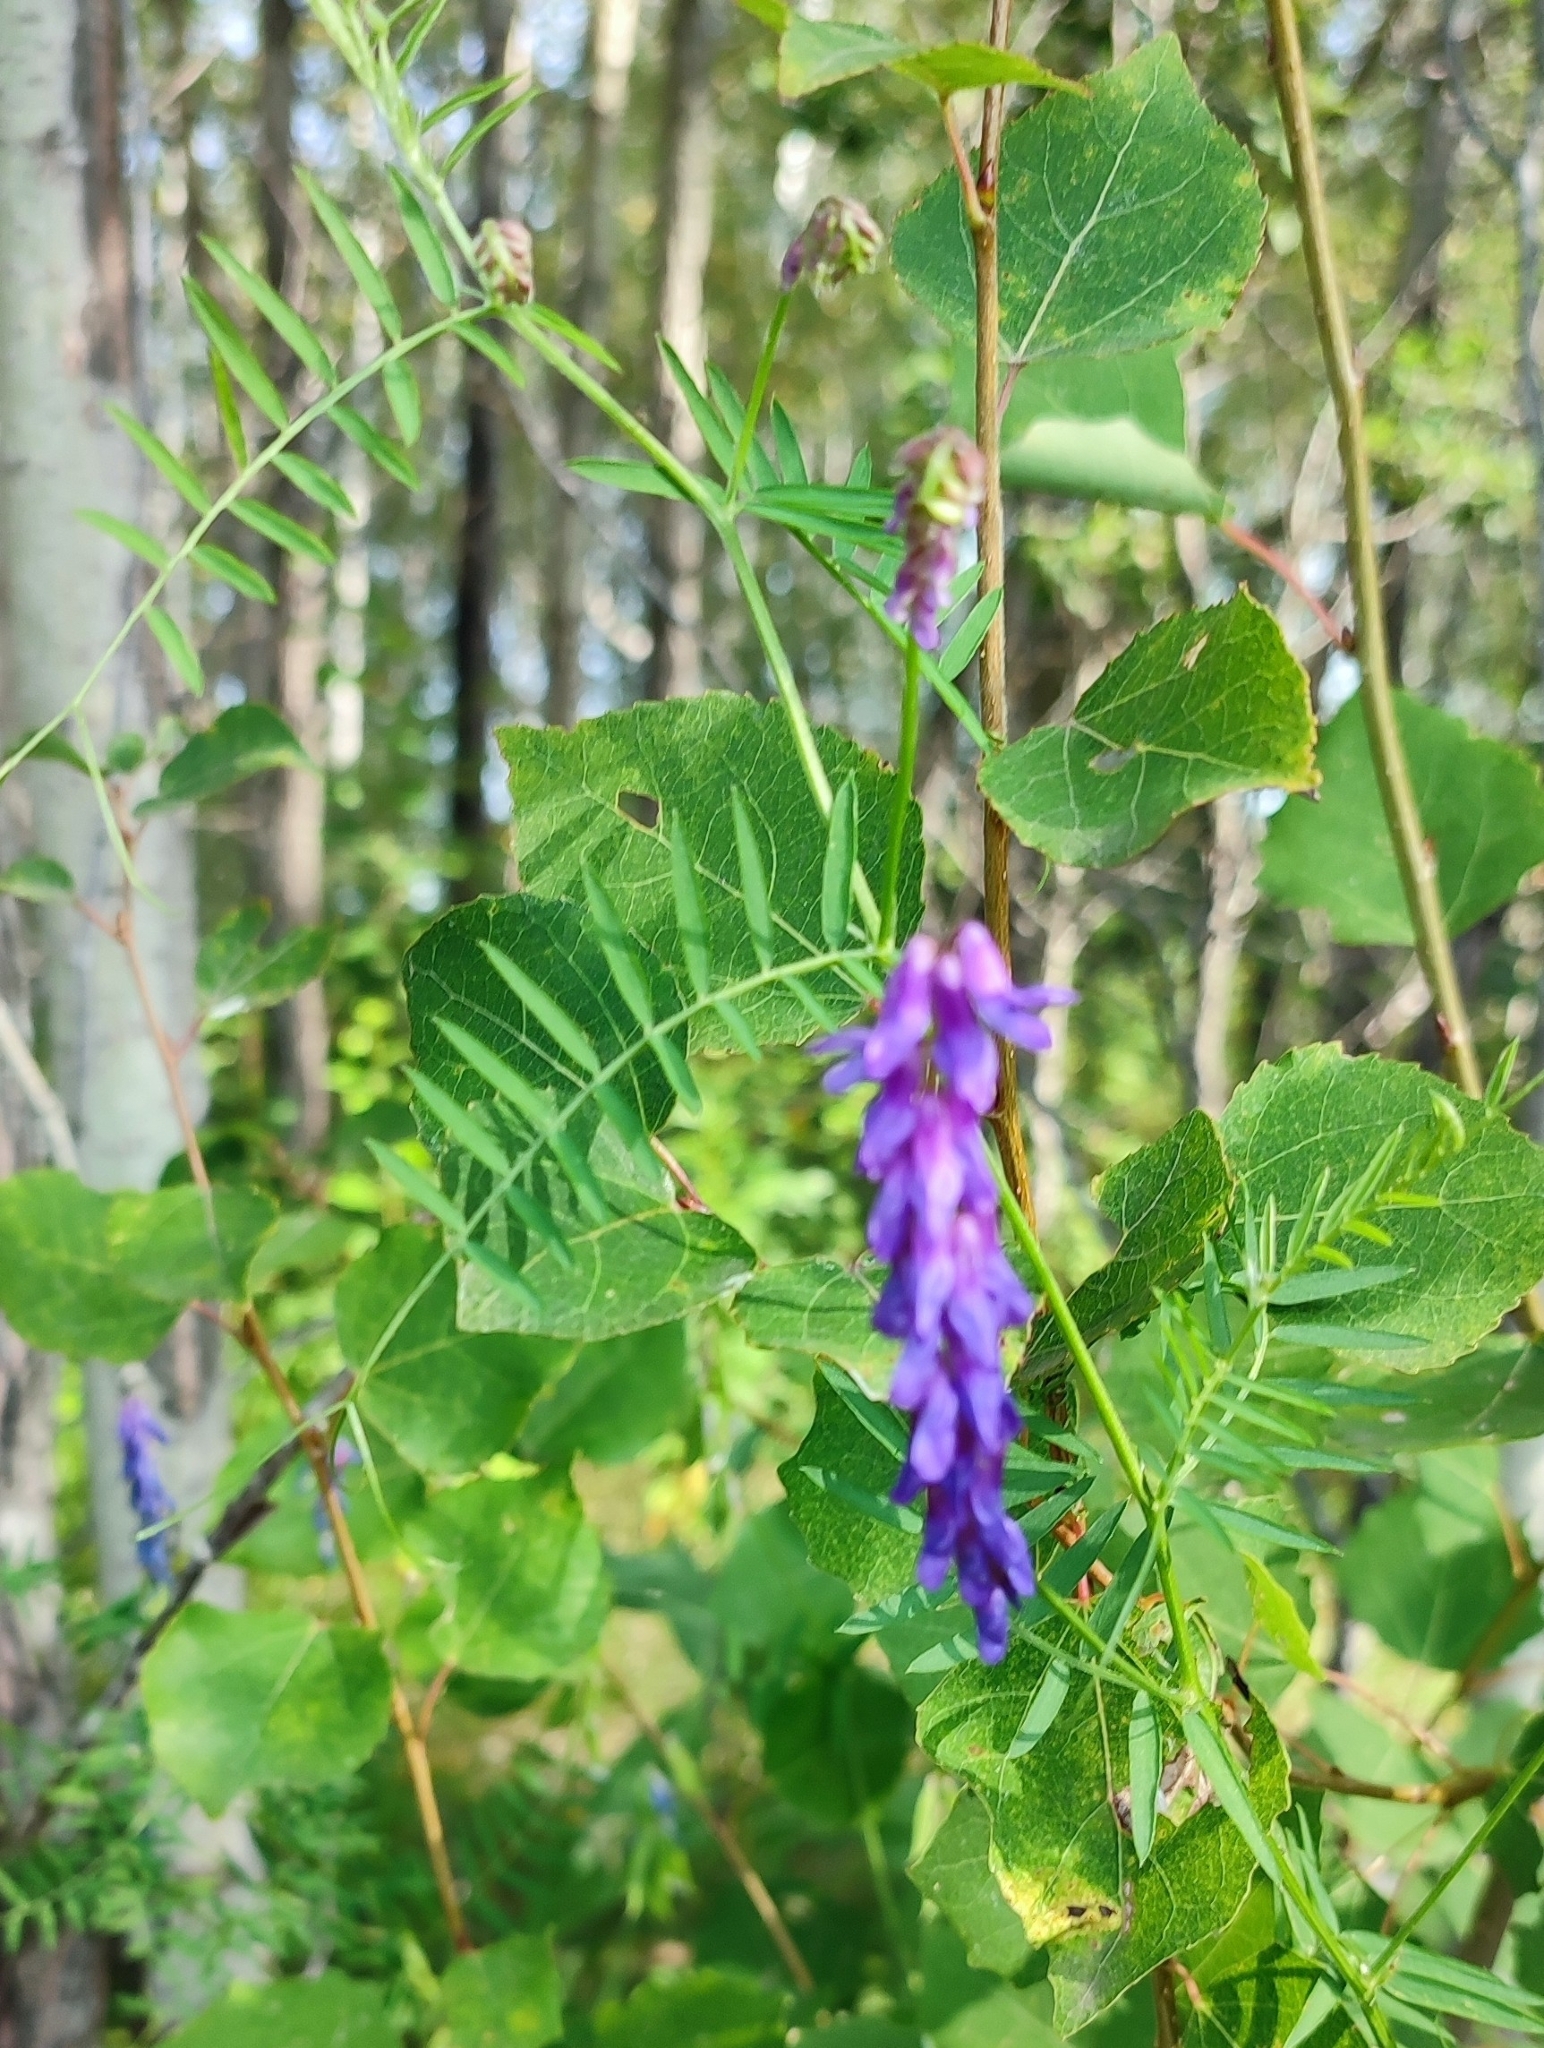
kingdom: Plantae
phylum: Tracheophyta
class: Magnoliopsida
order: Fabales
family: Fabaceae
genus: Vicia
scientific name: Vicia cracca
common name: Bird vetch
